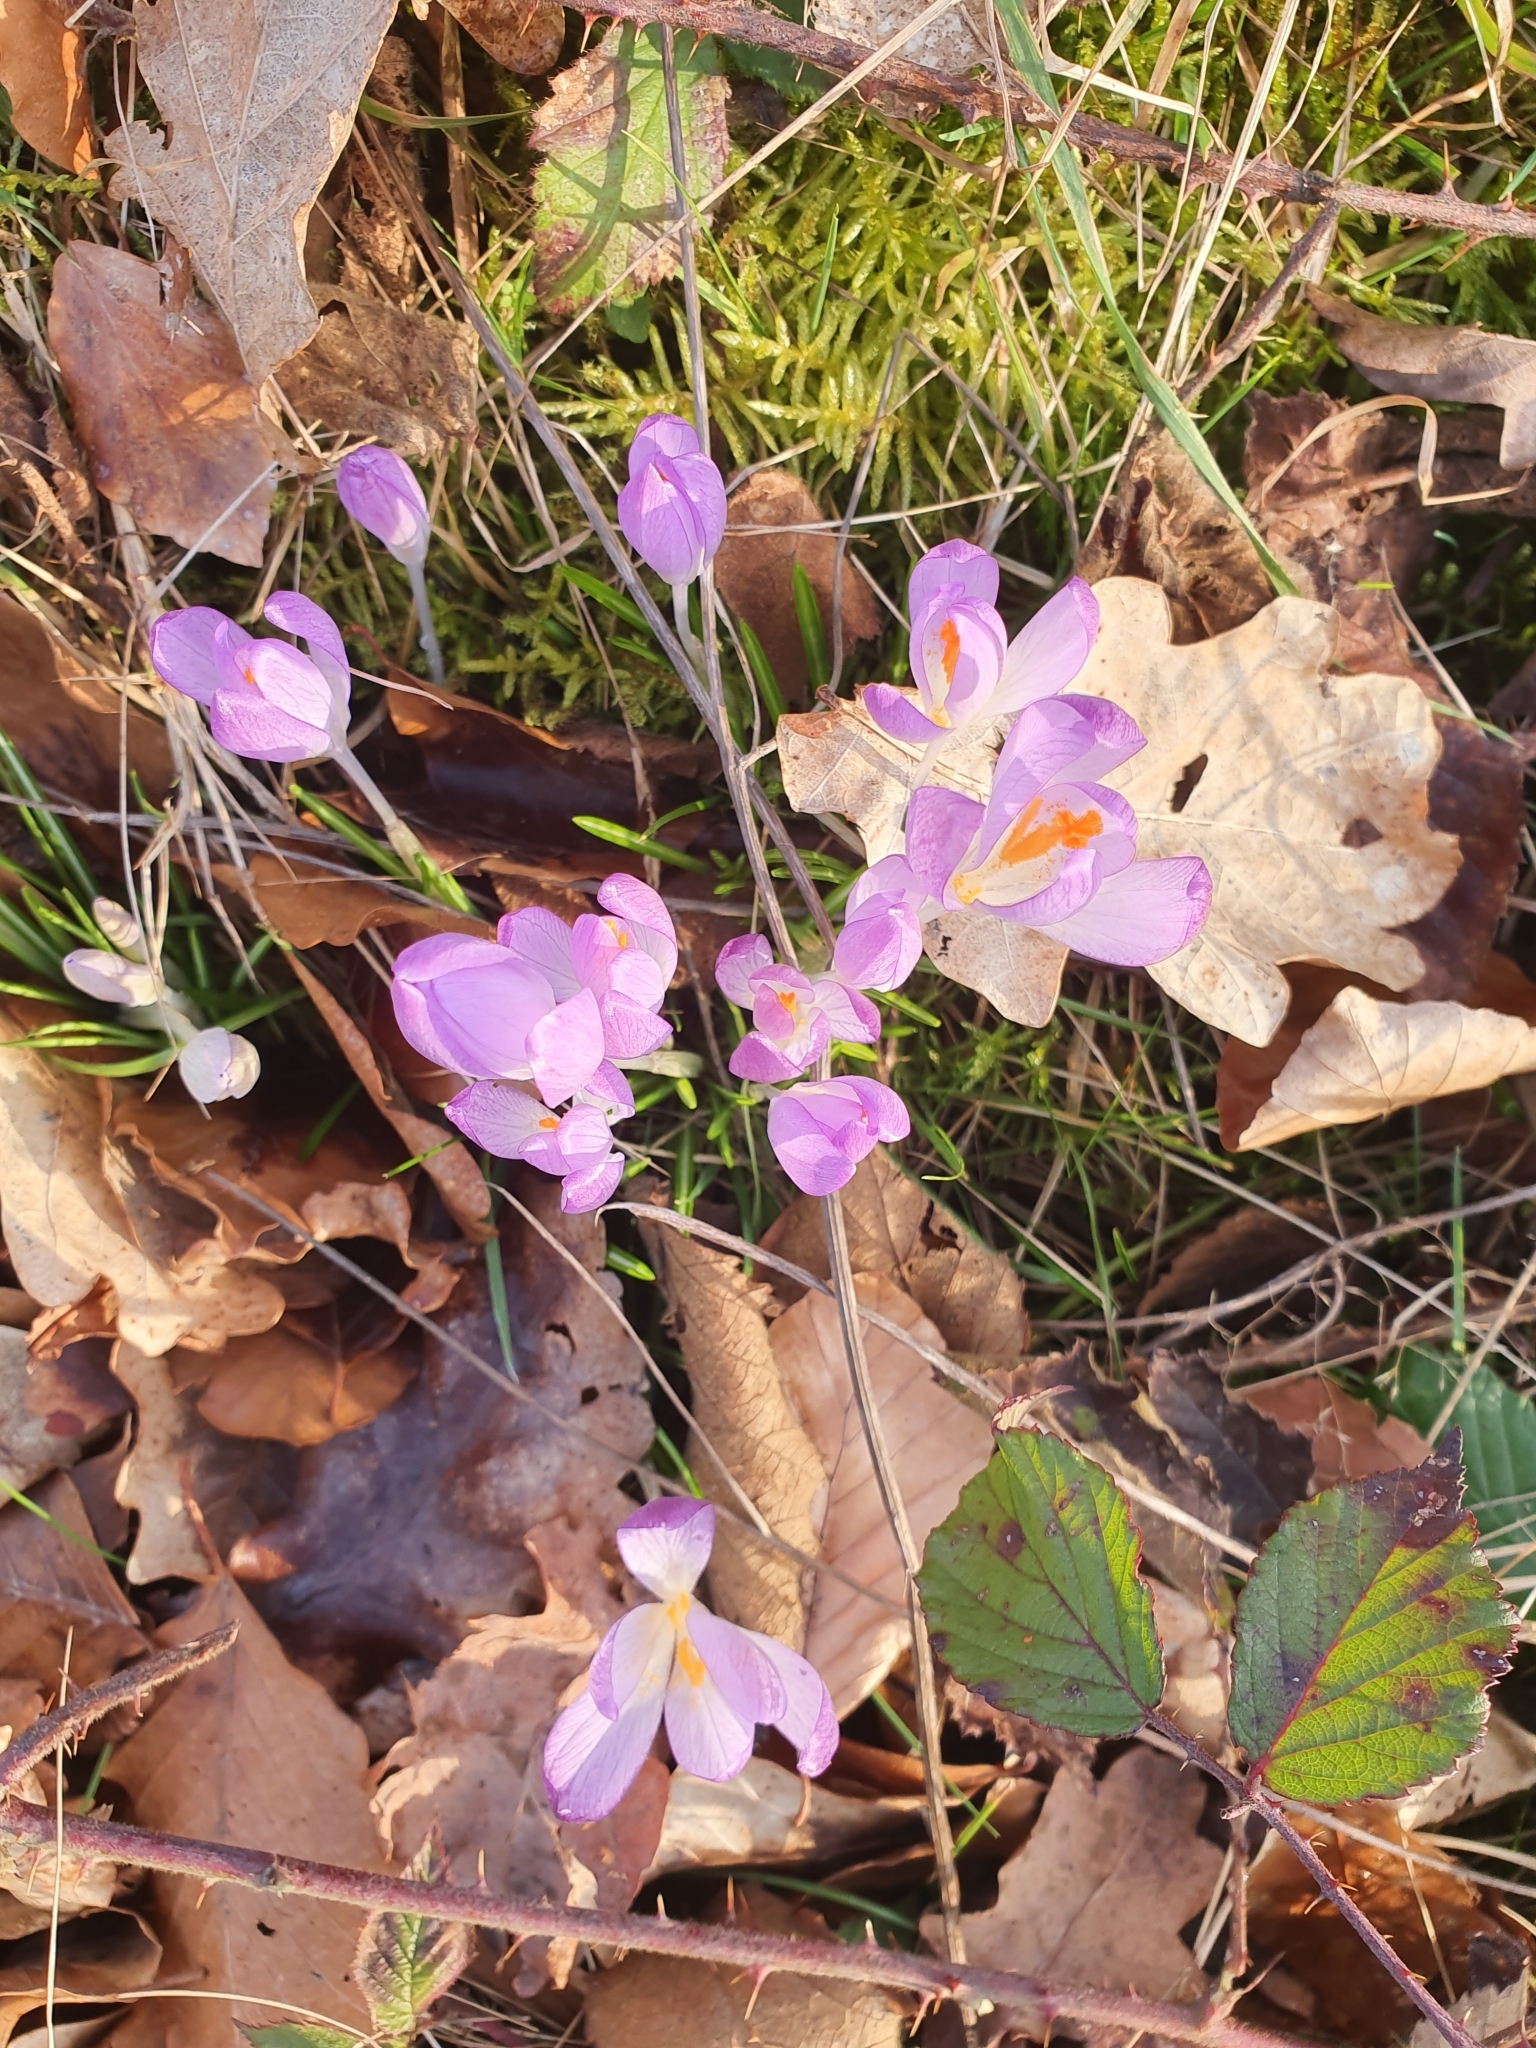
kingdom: Plantae
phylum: Tracheophyta
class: Liliopsida
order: Asparagales
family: Iridaceae
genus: Crocus
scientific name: Crocus tommasinianus
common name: Early crocus
